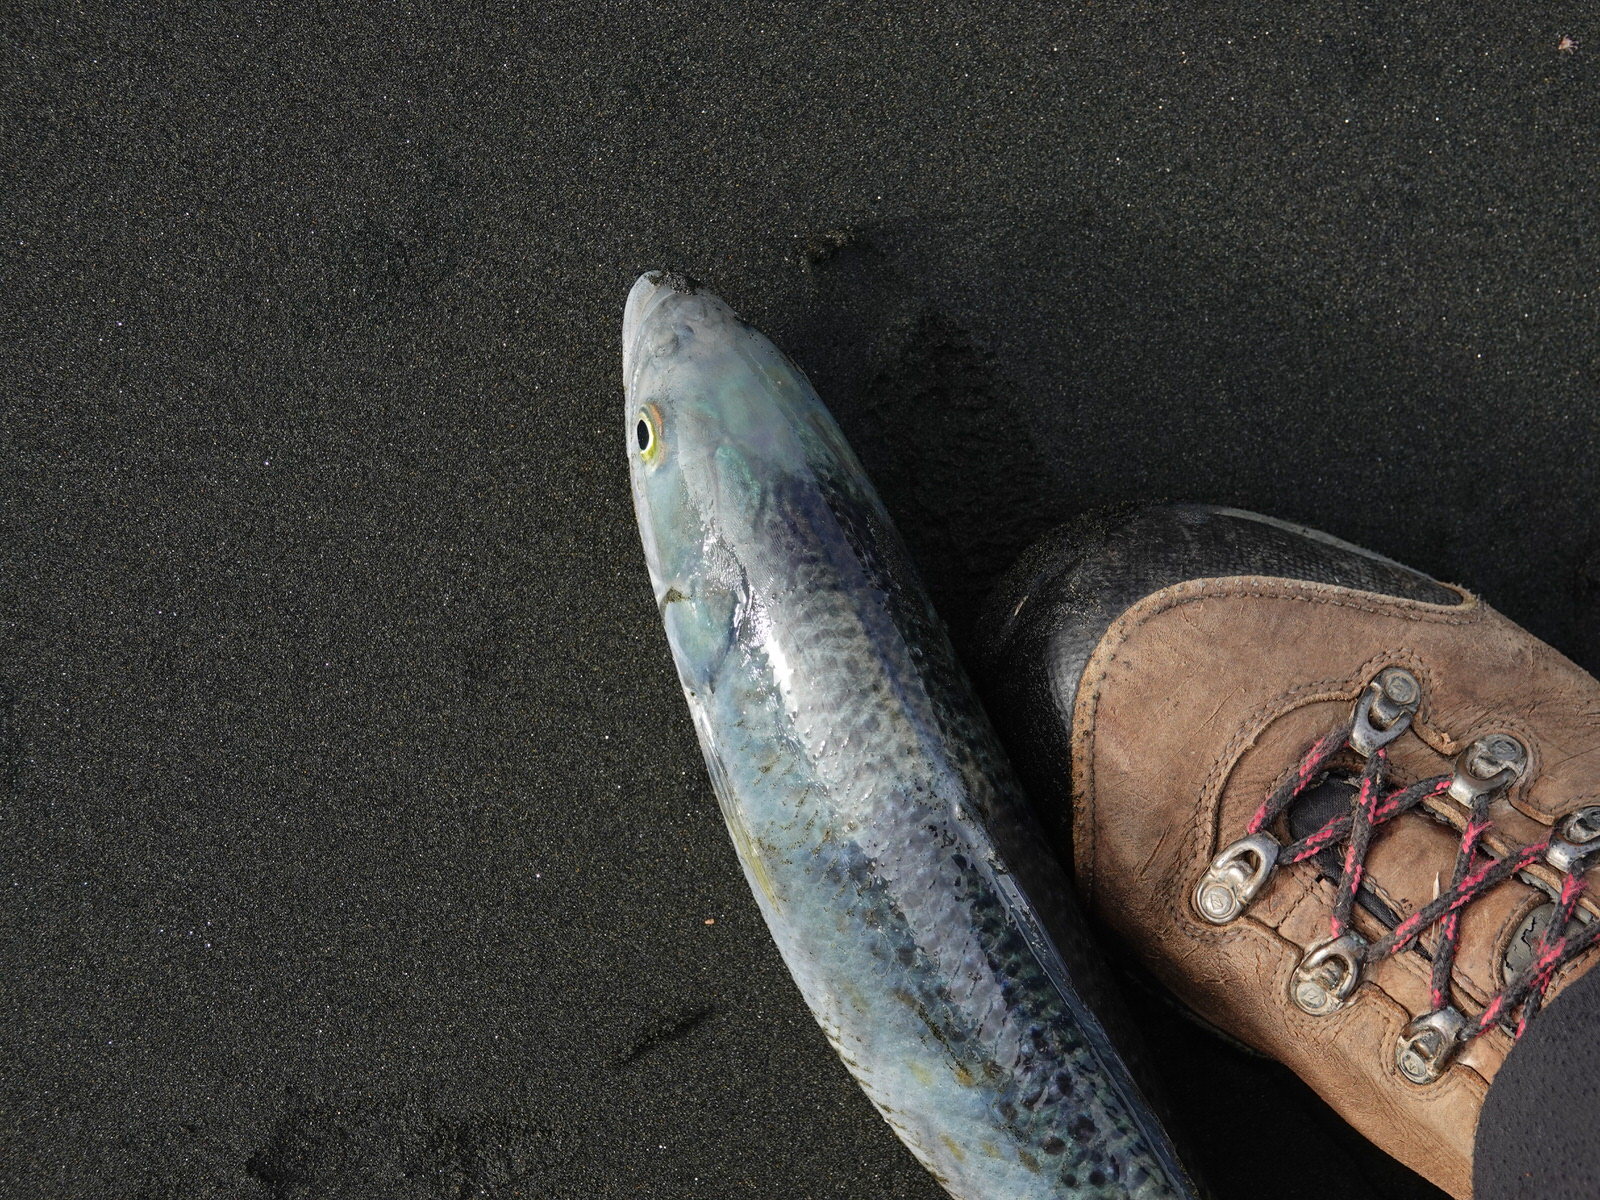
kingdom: Animalia
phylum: Chordata
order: Perciformes
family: Arripidae
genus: Arripis
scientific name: Arripis trutta
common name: Kahawai
